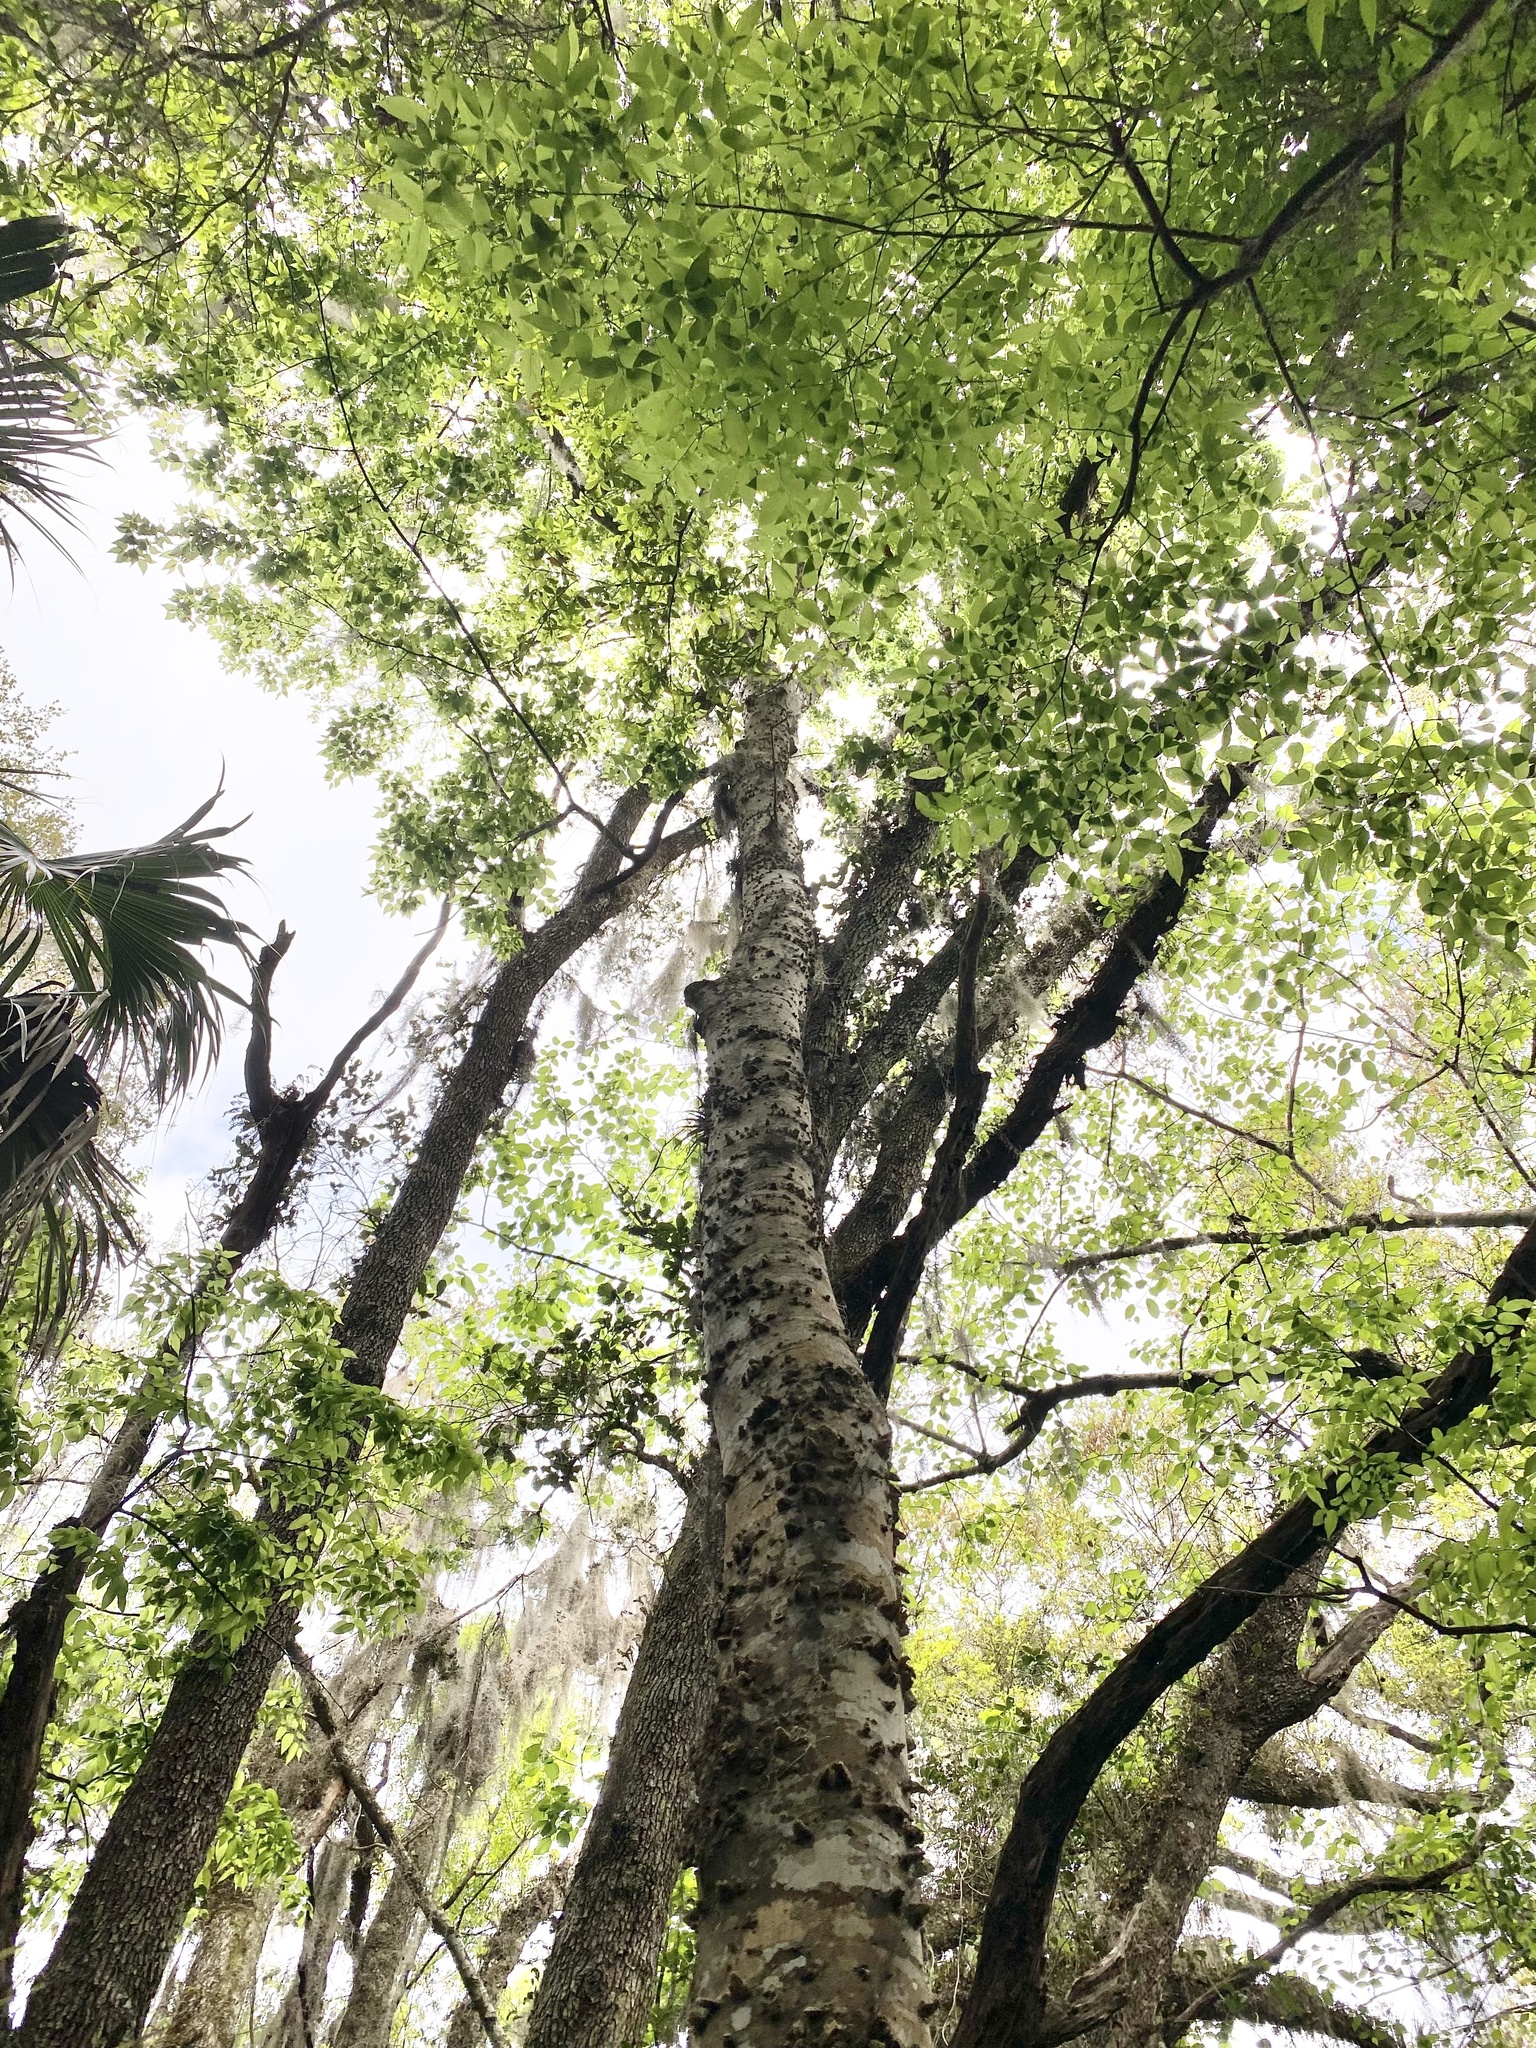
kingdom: Plantae
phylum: Tracheophyta
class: Magnoliopsida
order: Rosales
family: Cannabaceae
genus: Celtis
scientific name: Celtis laevigata
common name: Sugarberry
